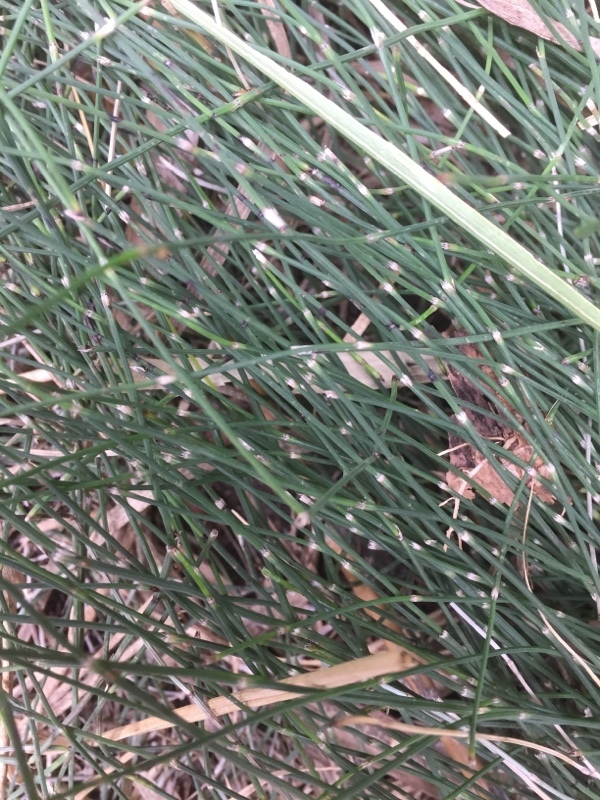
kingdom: Plantae
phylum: Tracheophyta
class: Polypodiopsida
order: Equisetales
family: Equisetaceae
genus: Equisetum
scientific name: Equisetum ramosissimum
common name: Branched horsetail
